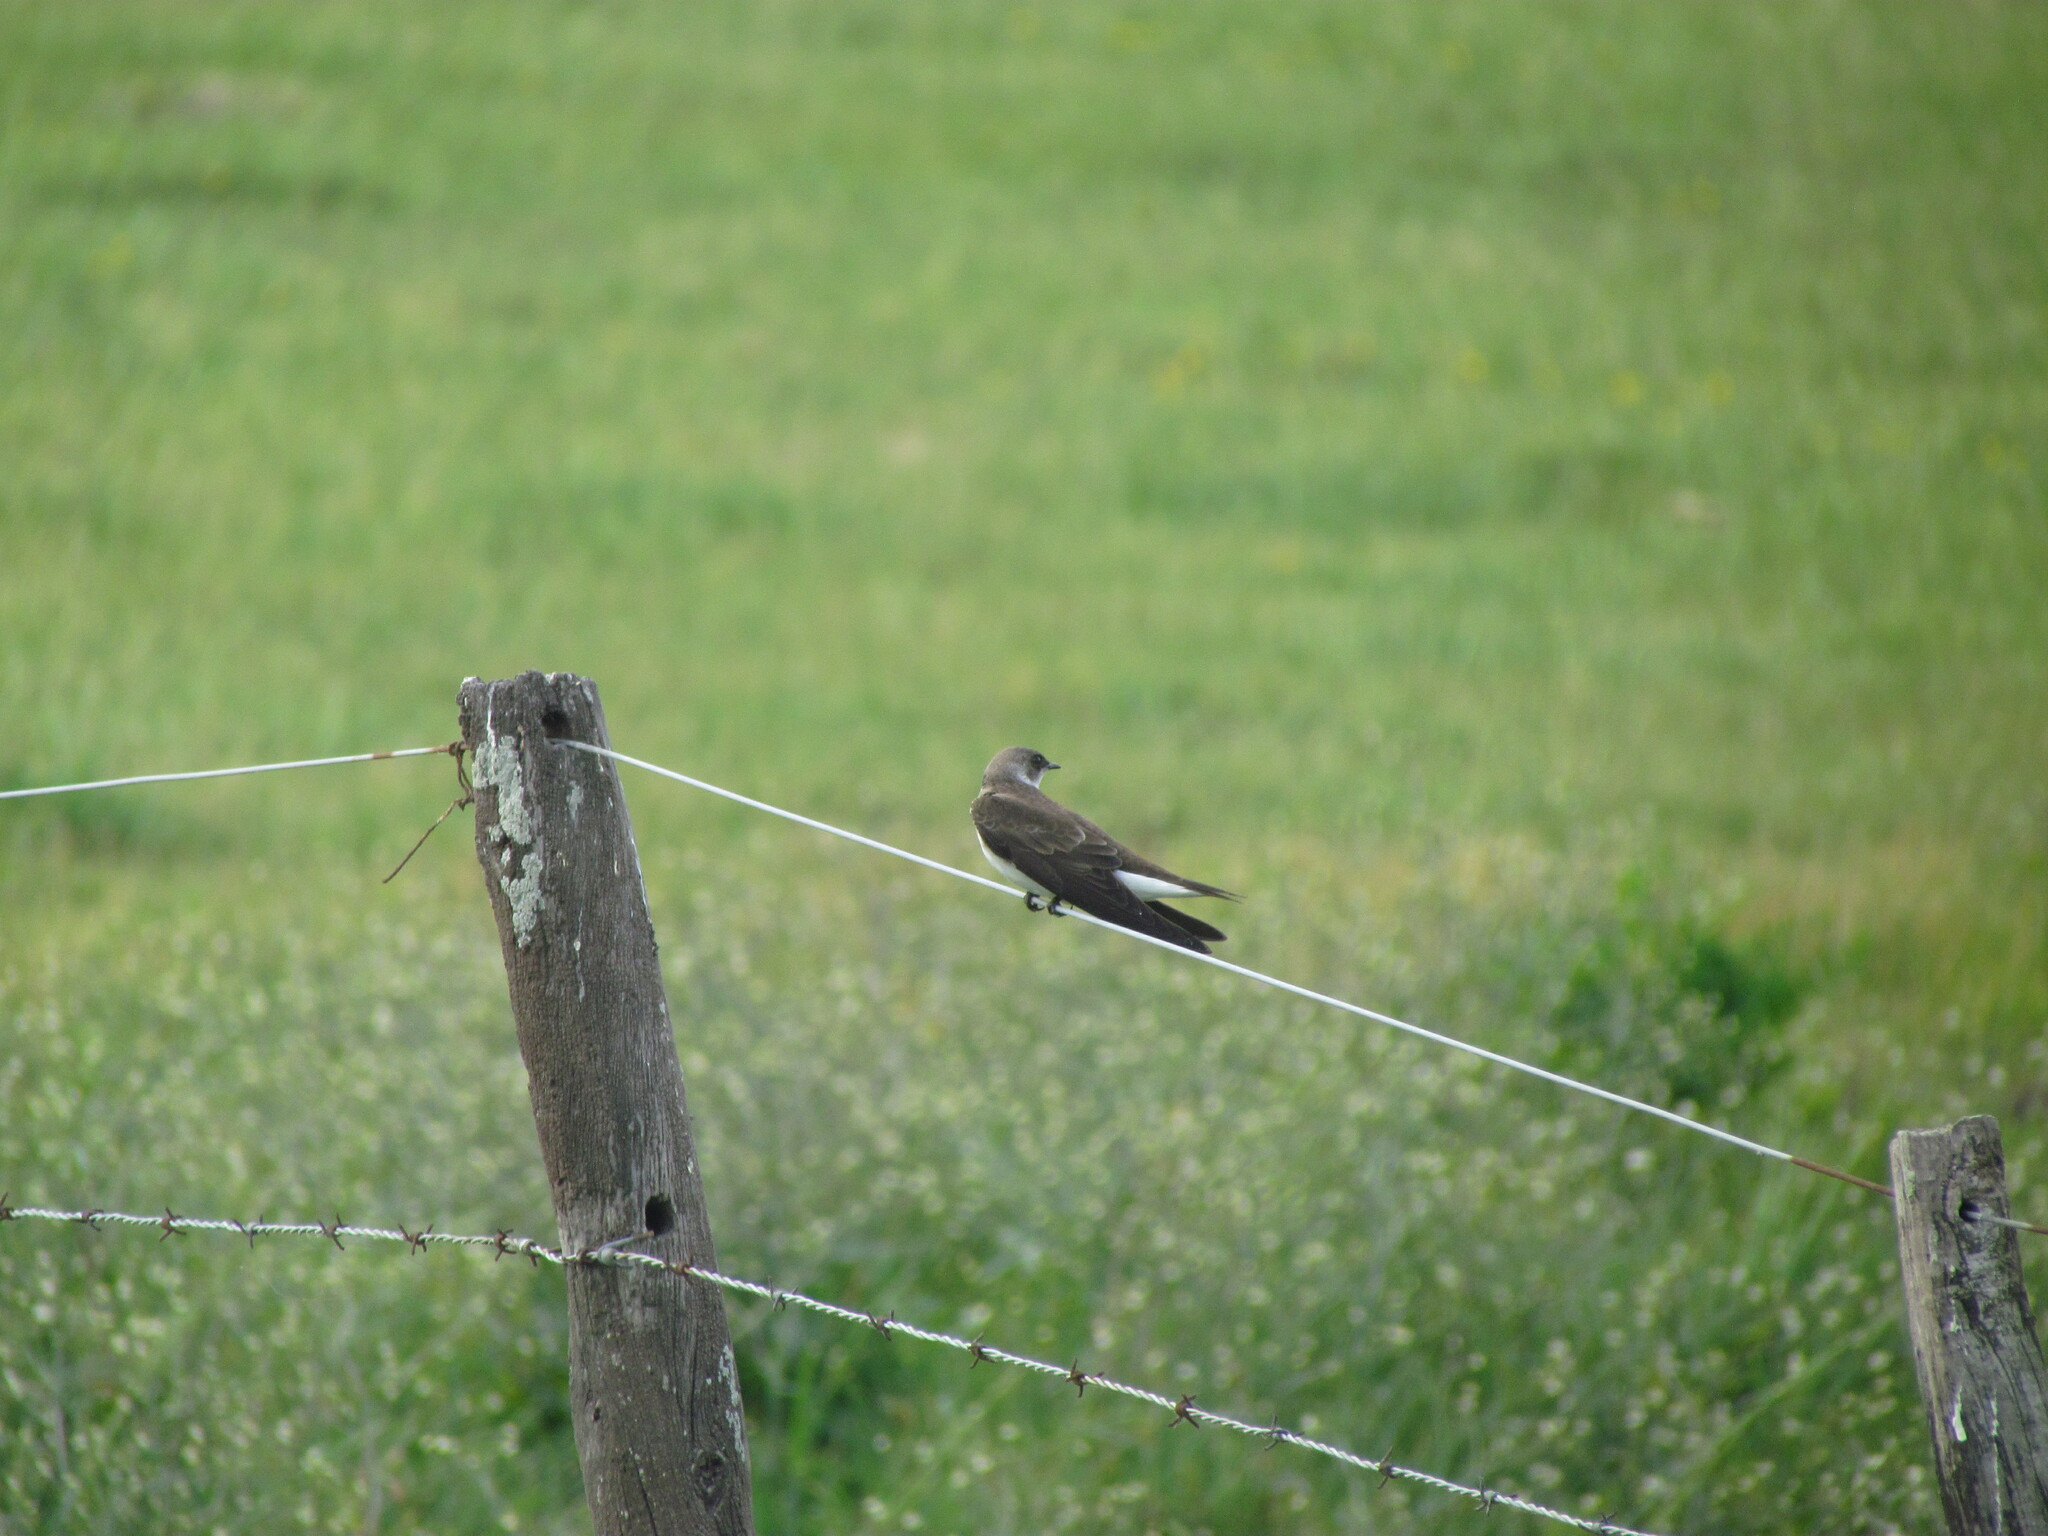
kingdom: Animalia
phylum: Chordata
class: Aves
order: Passeriformes
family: Hirundinidae
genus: Progne
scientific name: Progne tapera
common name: Brown-chested martin
